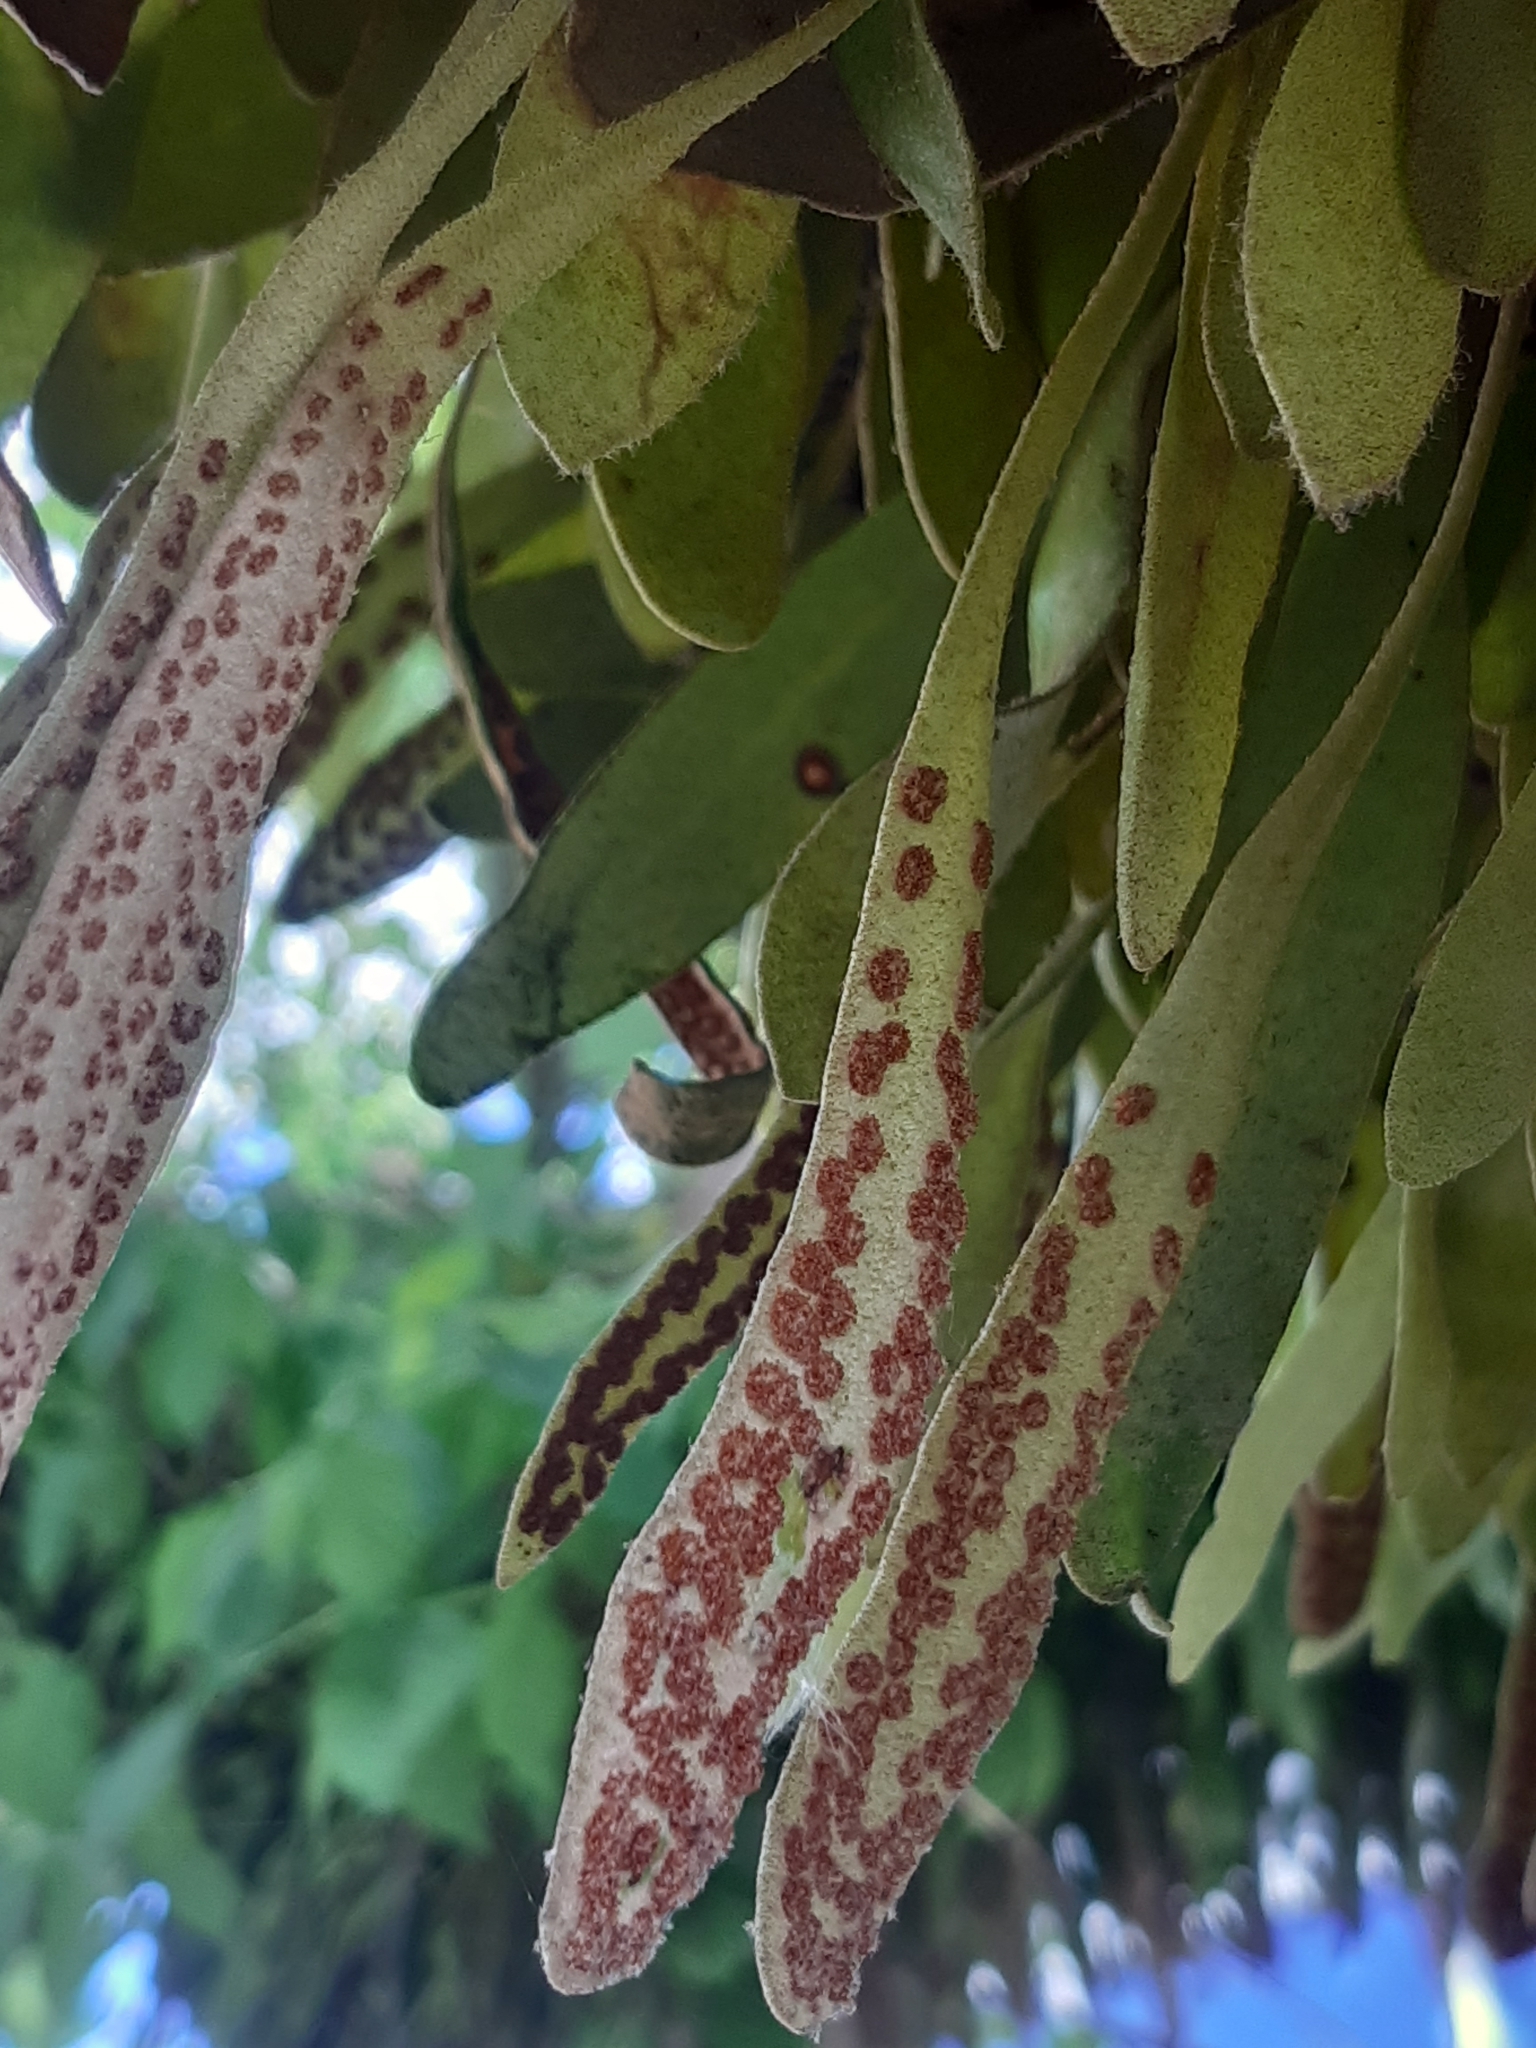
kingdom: Plantae
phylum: Tracheophyta
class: Polypodiopsida
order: Polypodiales
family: Polypodiaceae
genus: Pyrrosia
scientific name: Pyrrosia eleagnifolia
